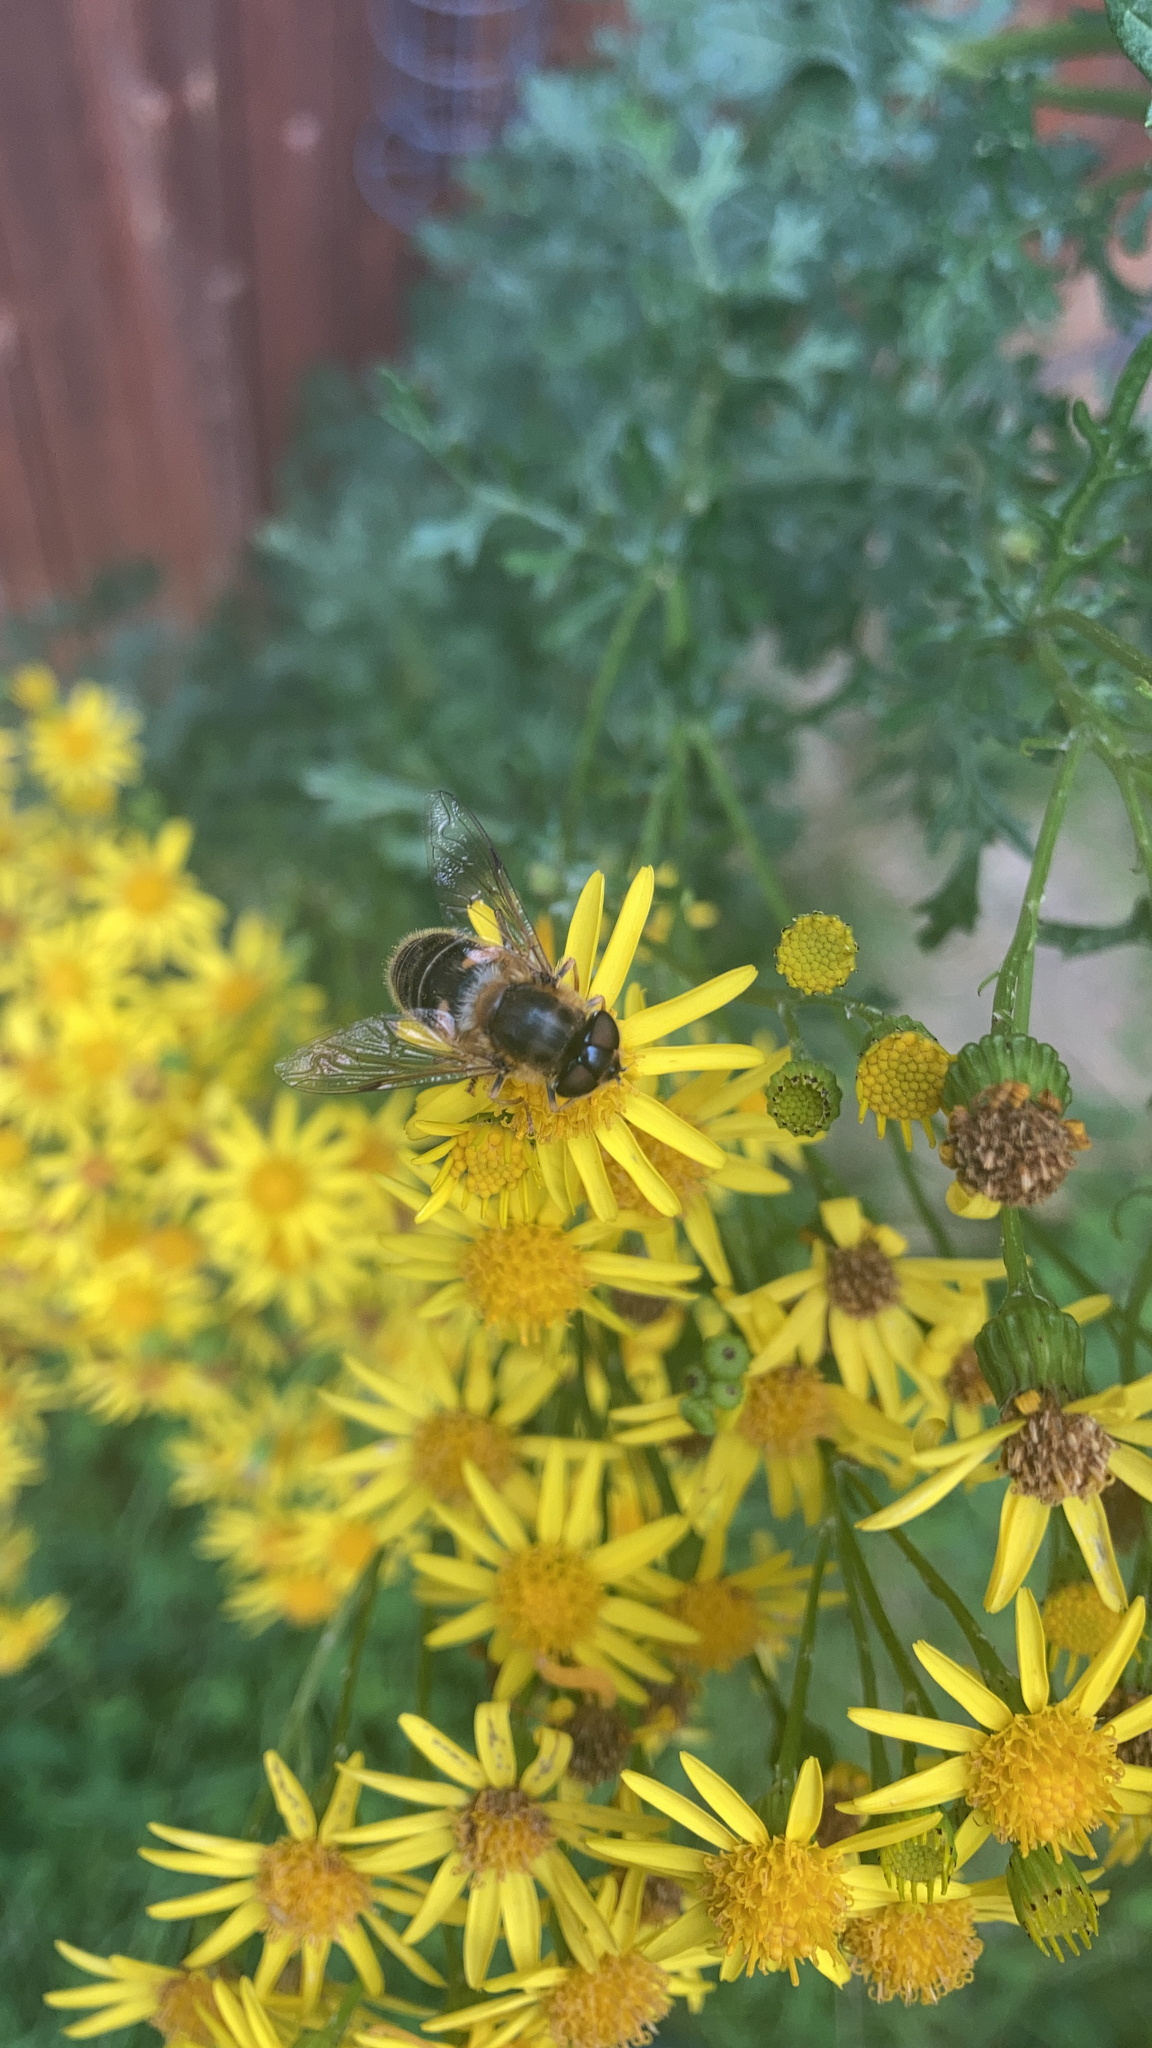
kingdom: Animalia
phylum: Arthropoda
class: Insecta
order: Diptera
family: Syrphidae
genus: Eristalis
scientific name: Eristalis pertinax
